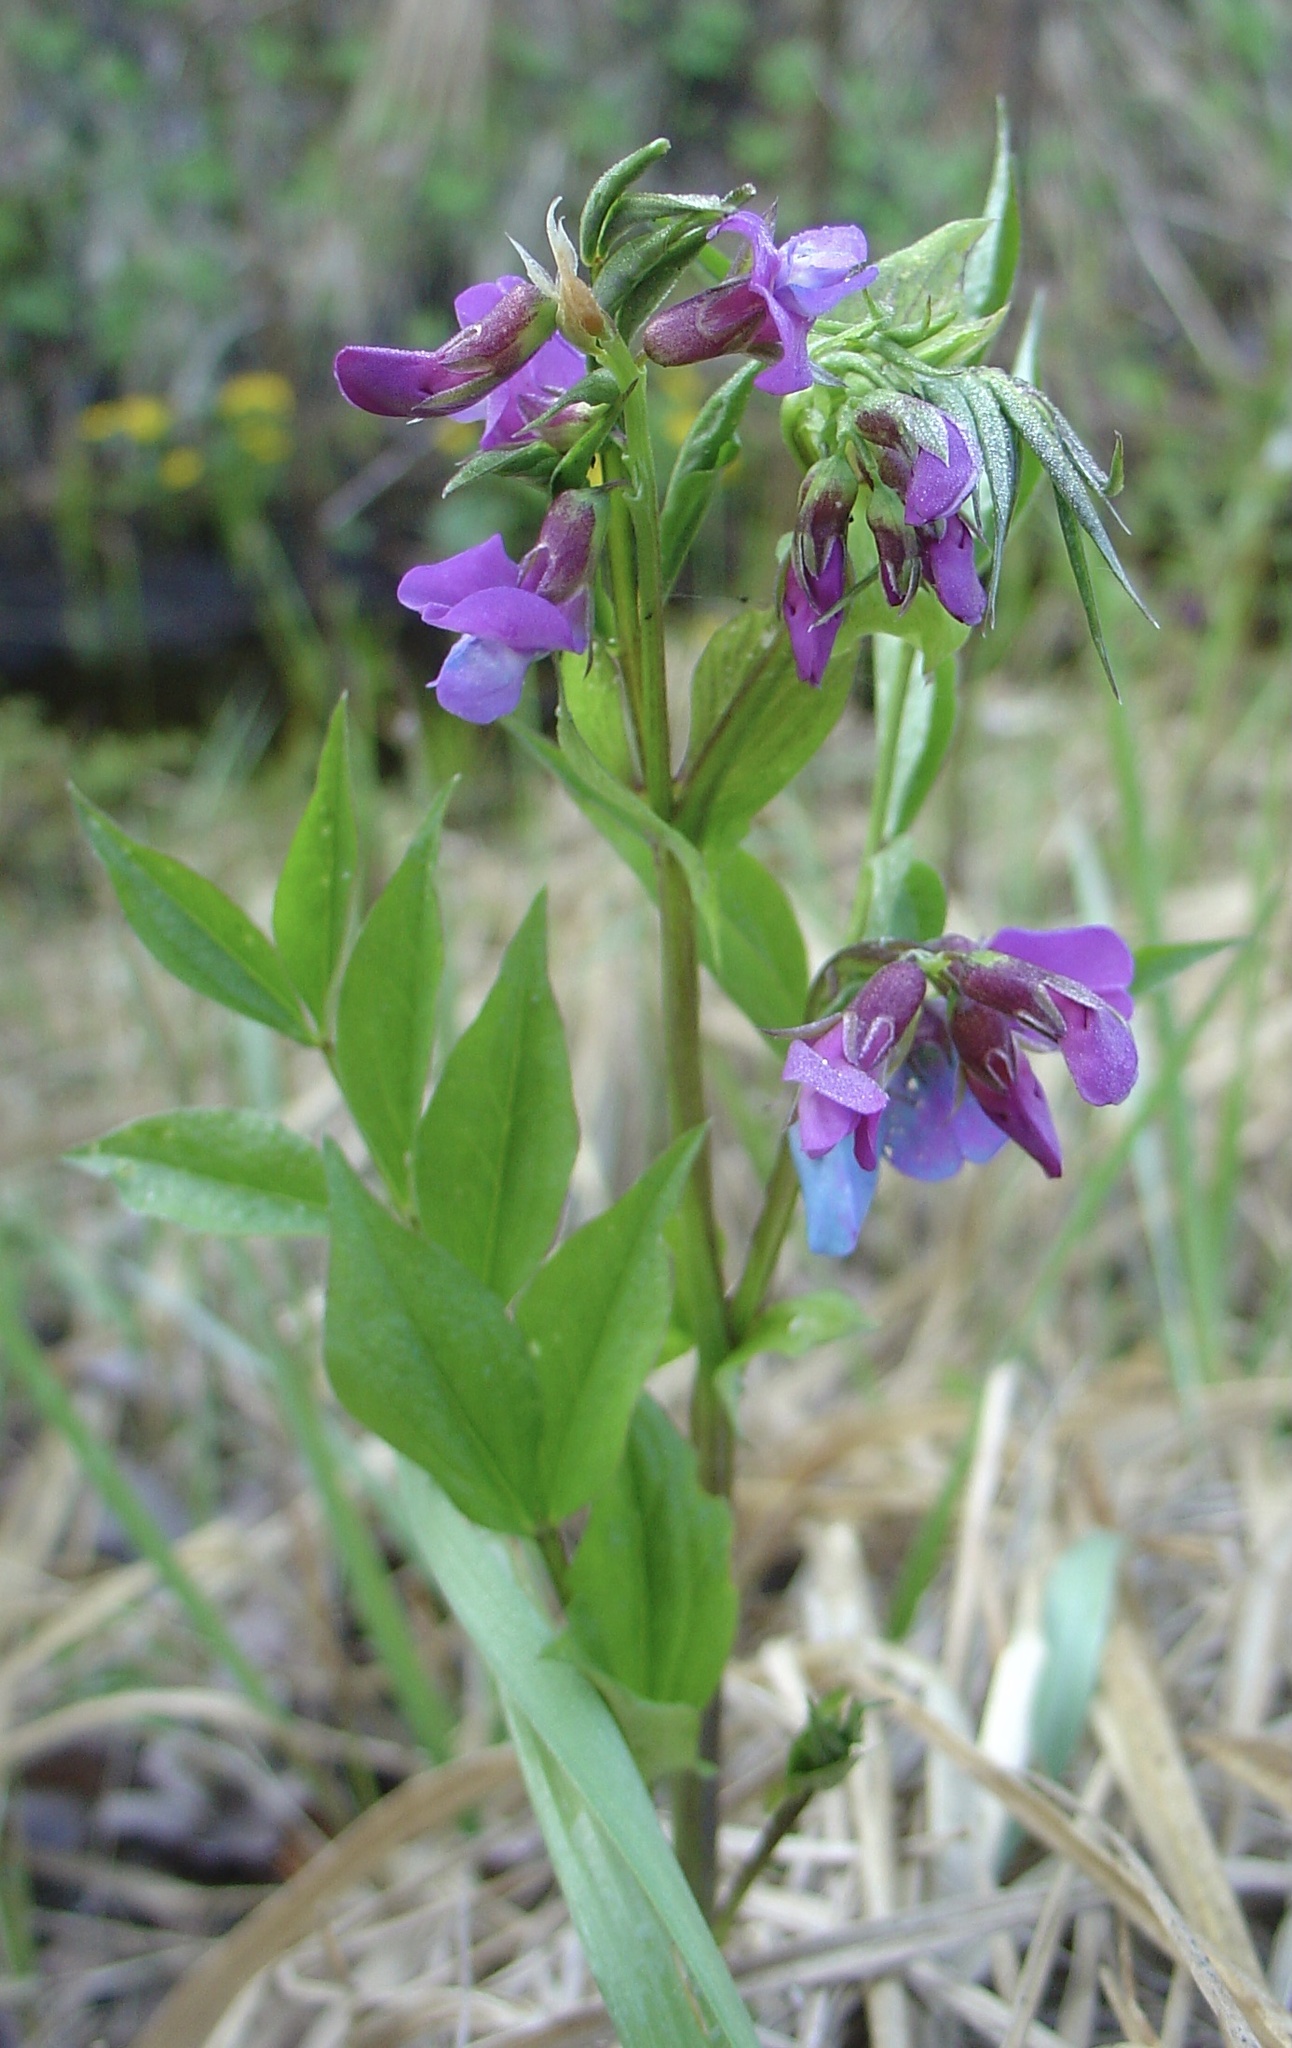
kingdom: Plantae
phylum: Tracheophyta
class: Magnoliopsida
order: Fabales
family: Fabaceae
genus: Lathyrus
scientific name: Lathyrus vernus
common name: Spring pea
